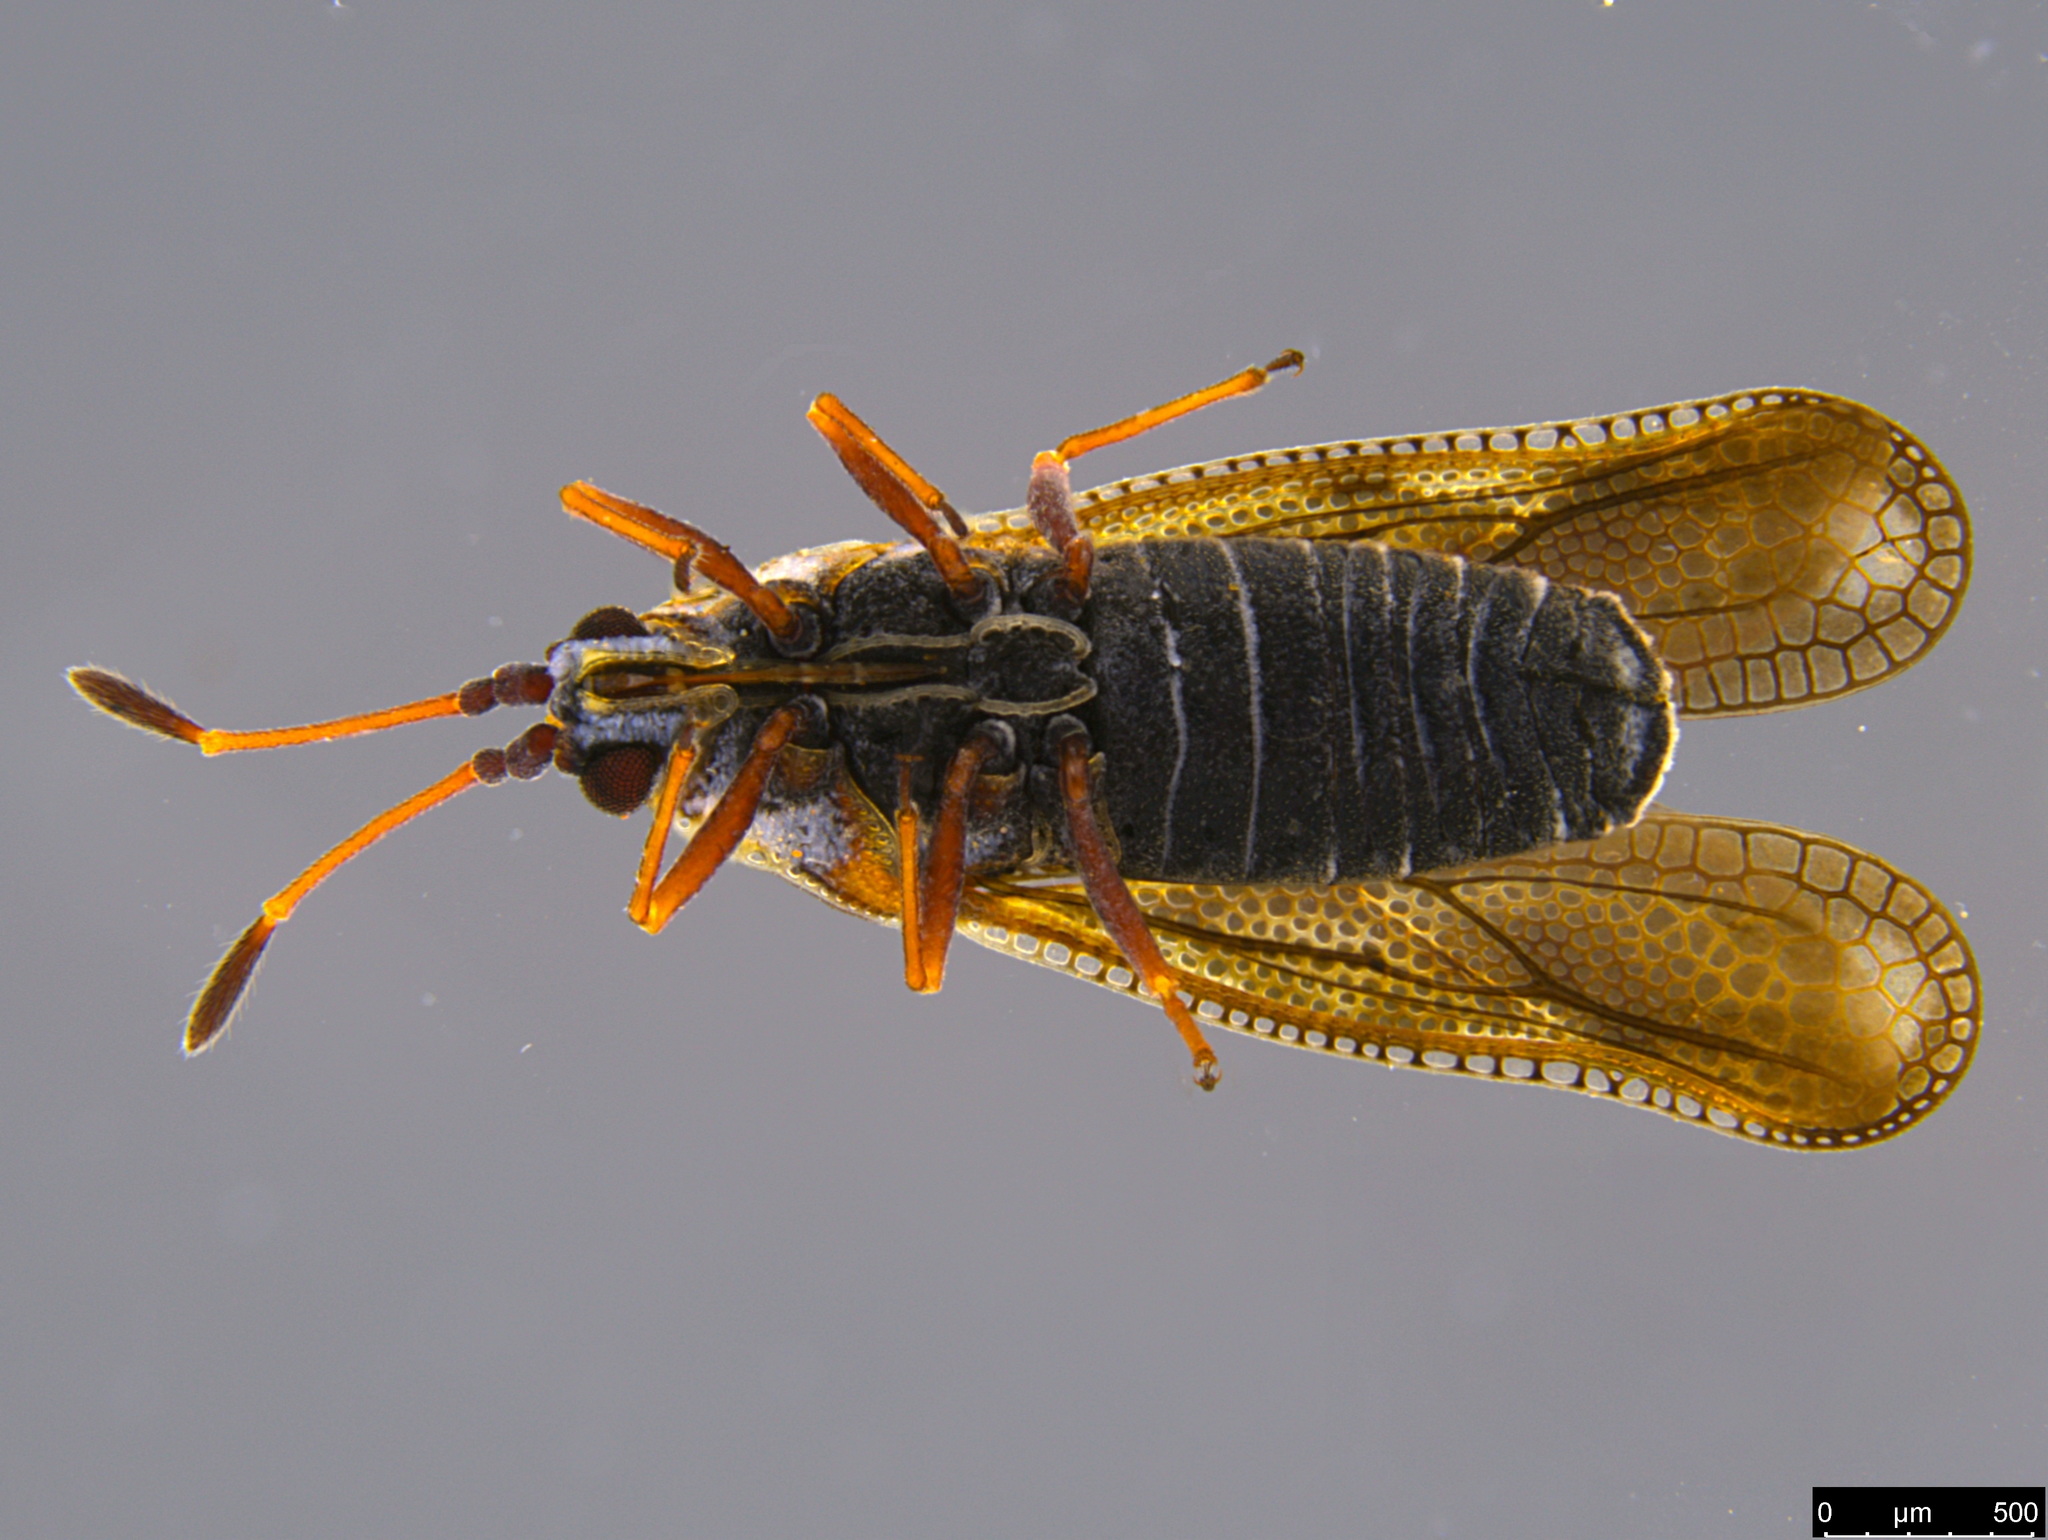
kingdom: Animalia
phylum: Arthropoda
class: Insecta
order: Hemiptera
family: Tingidae
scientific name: Tingidae
